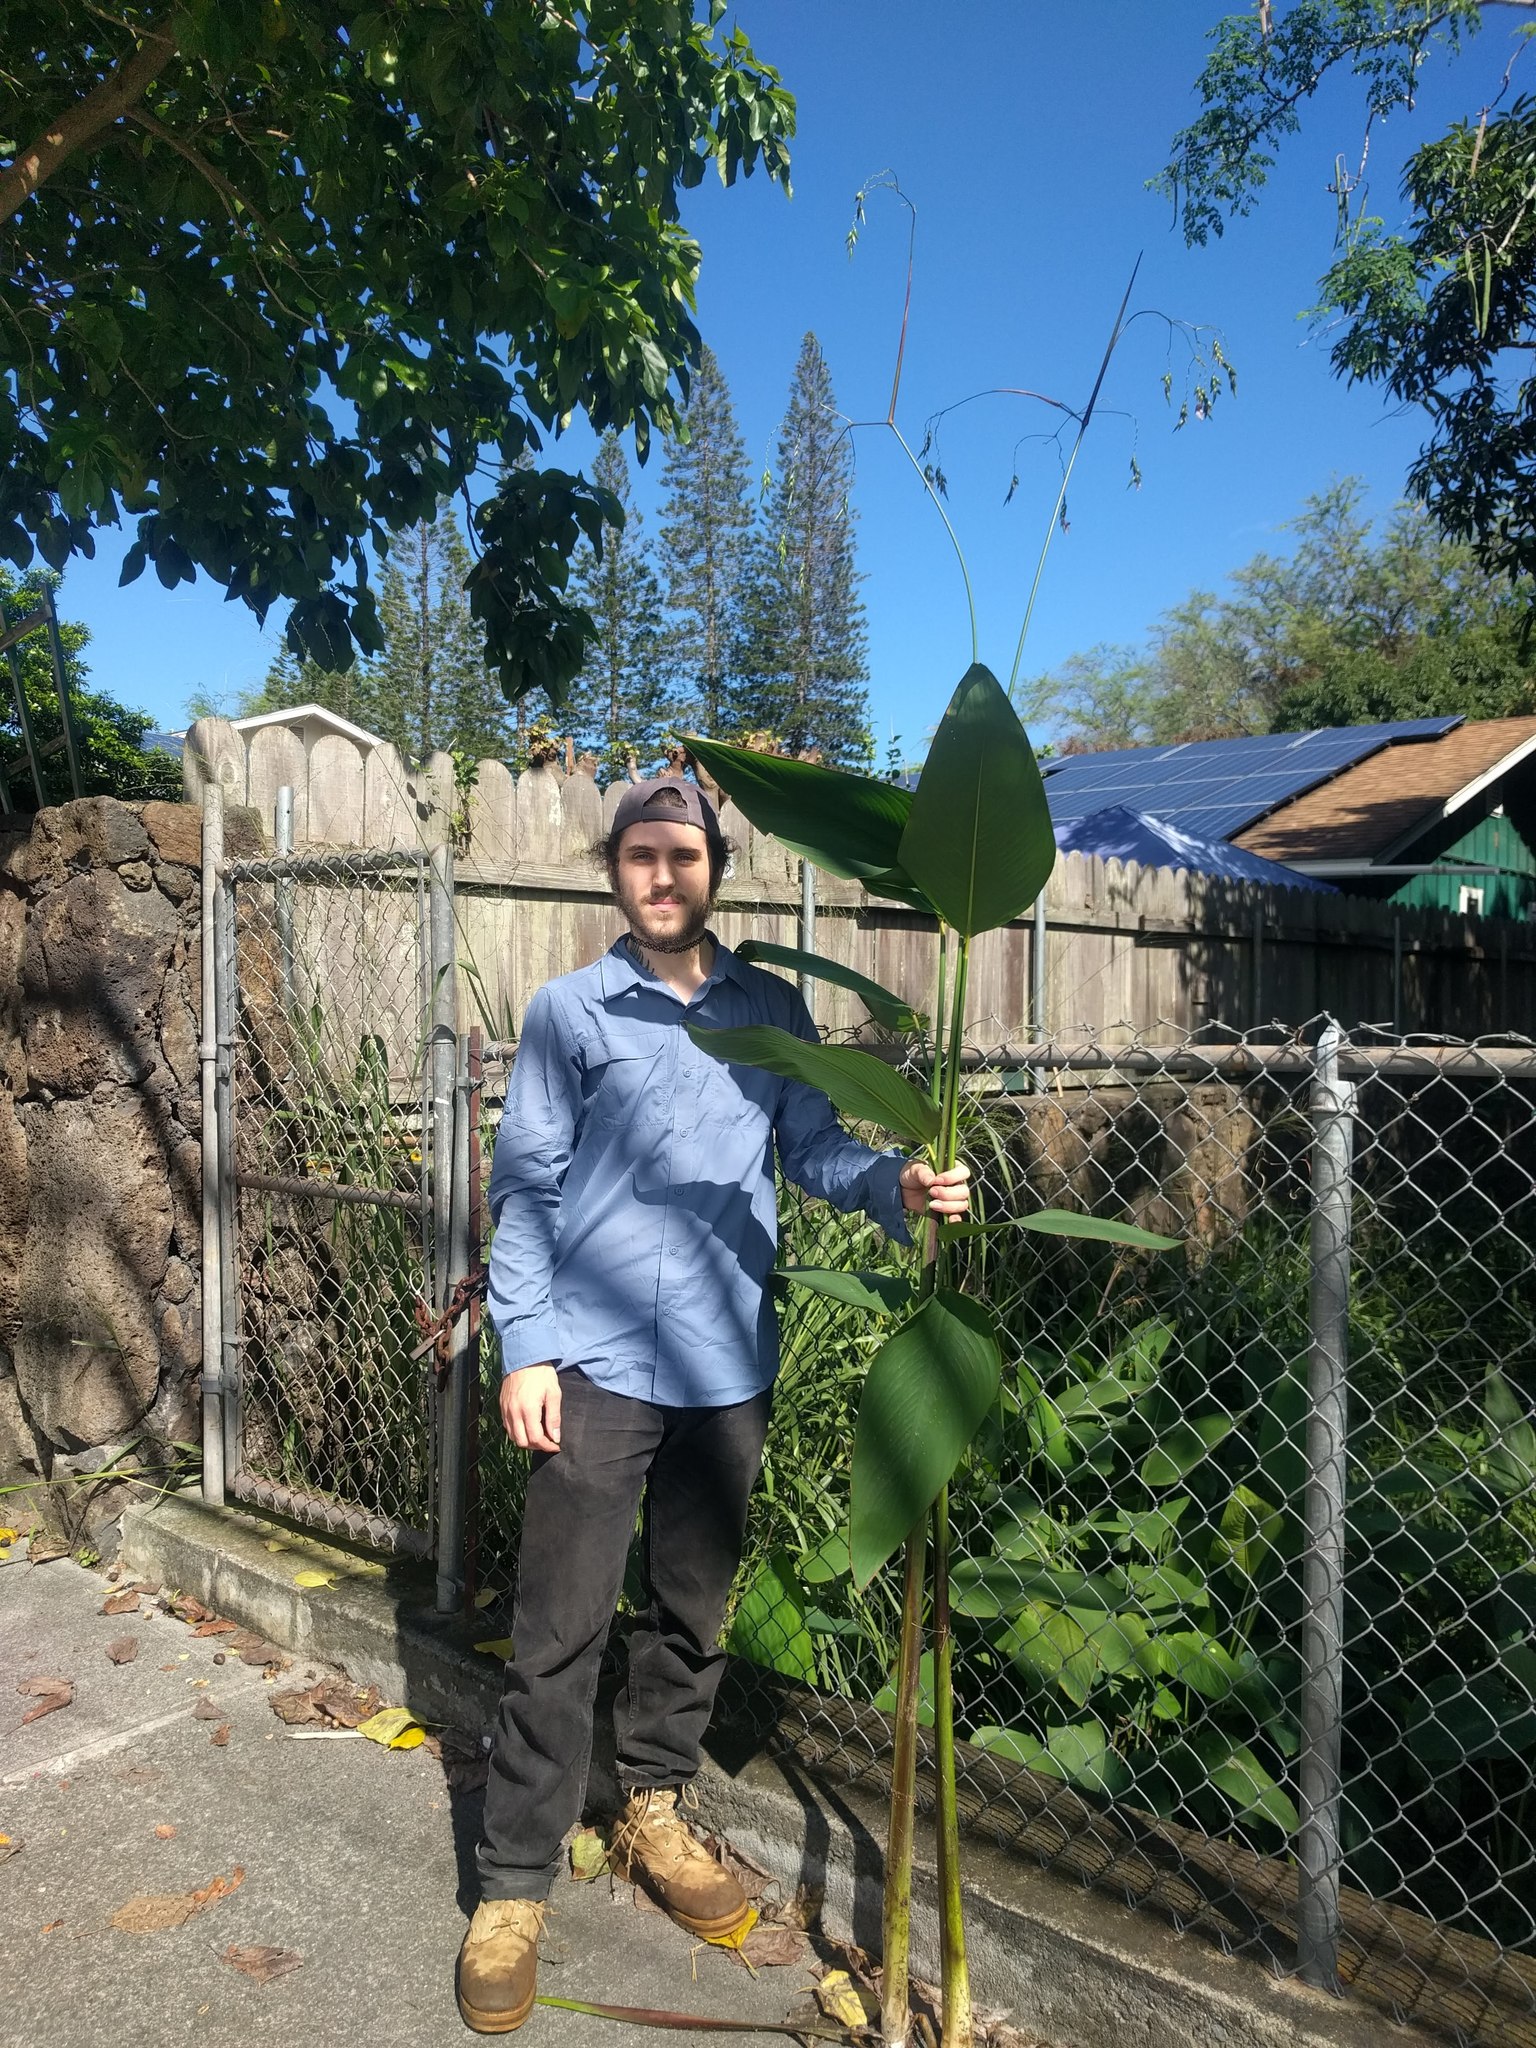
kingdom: Plantae
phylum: Tracheophyta
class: Liliopsida
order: Zingiberales
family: Marantaceae
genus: Thalia
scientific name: Thalia geniculata
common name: Arrowroot
